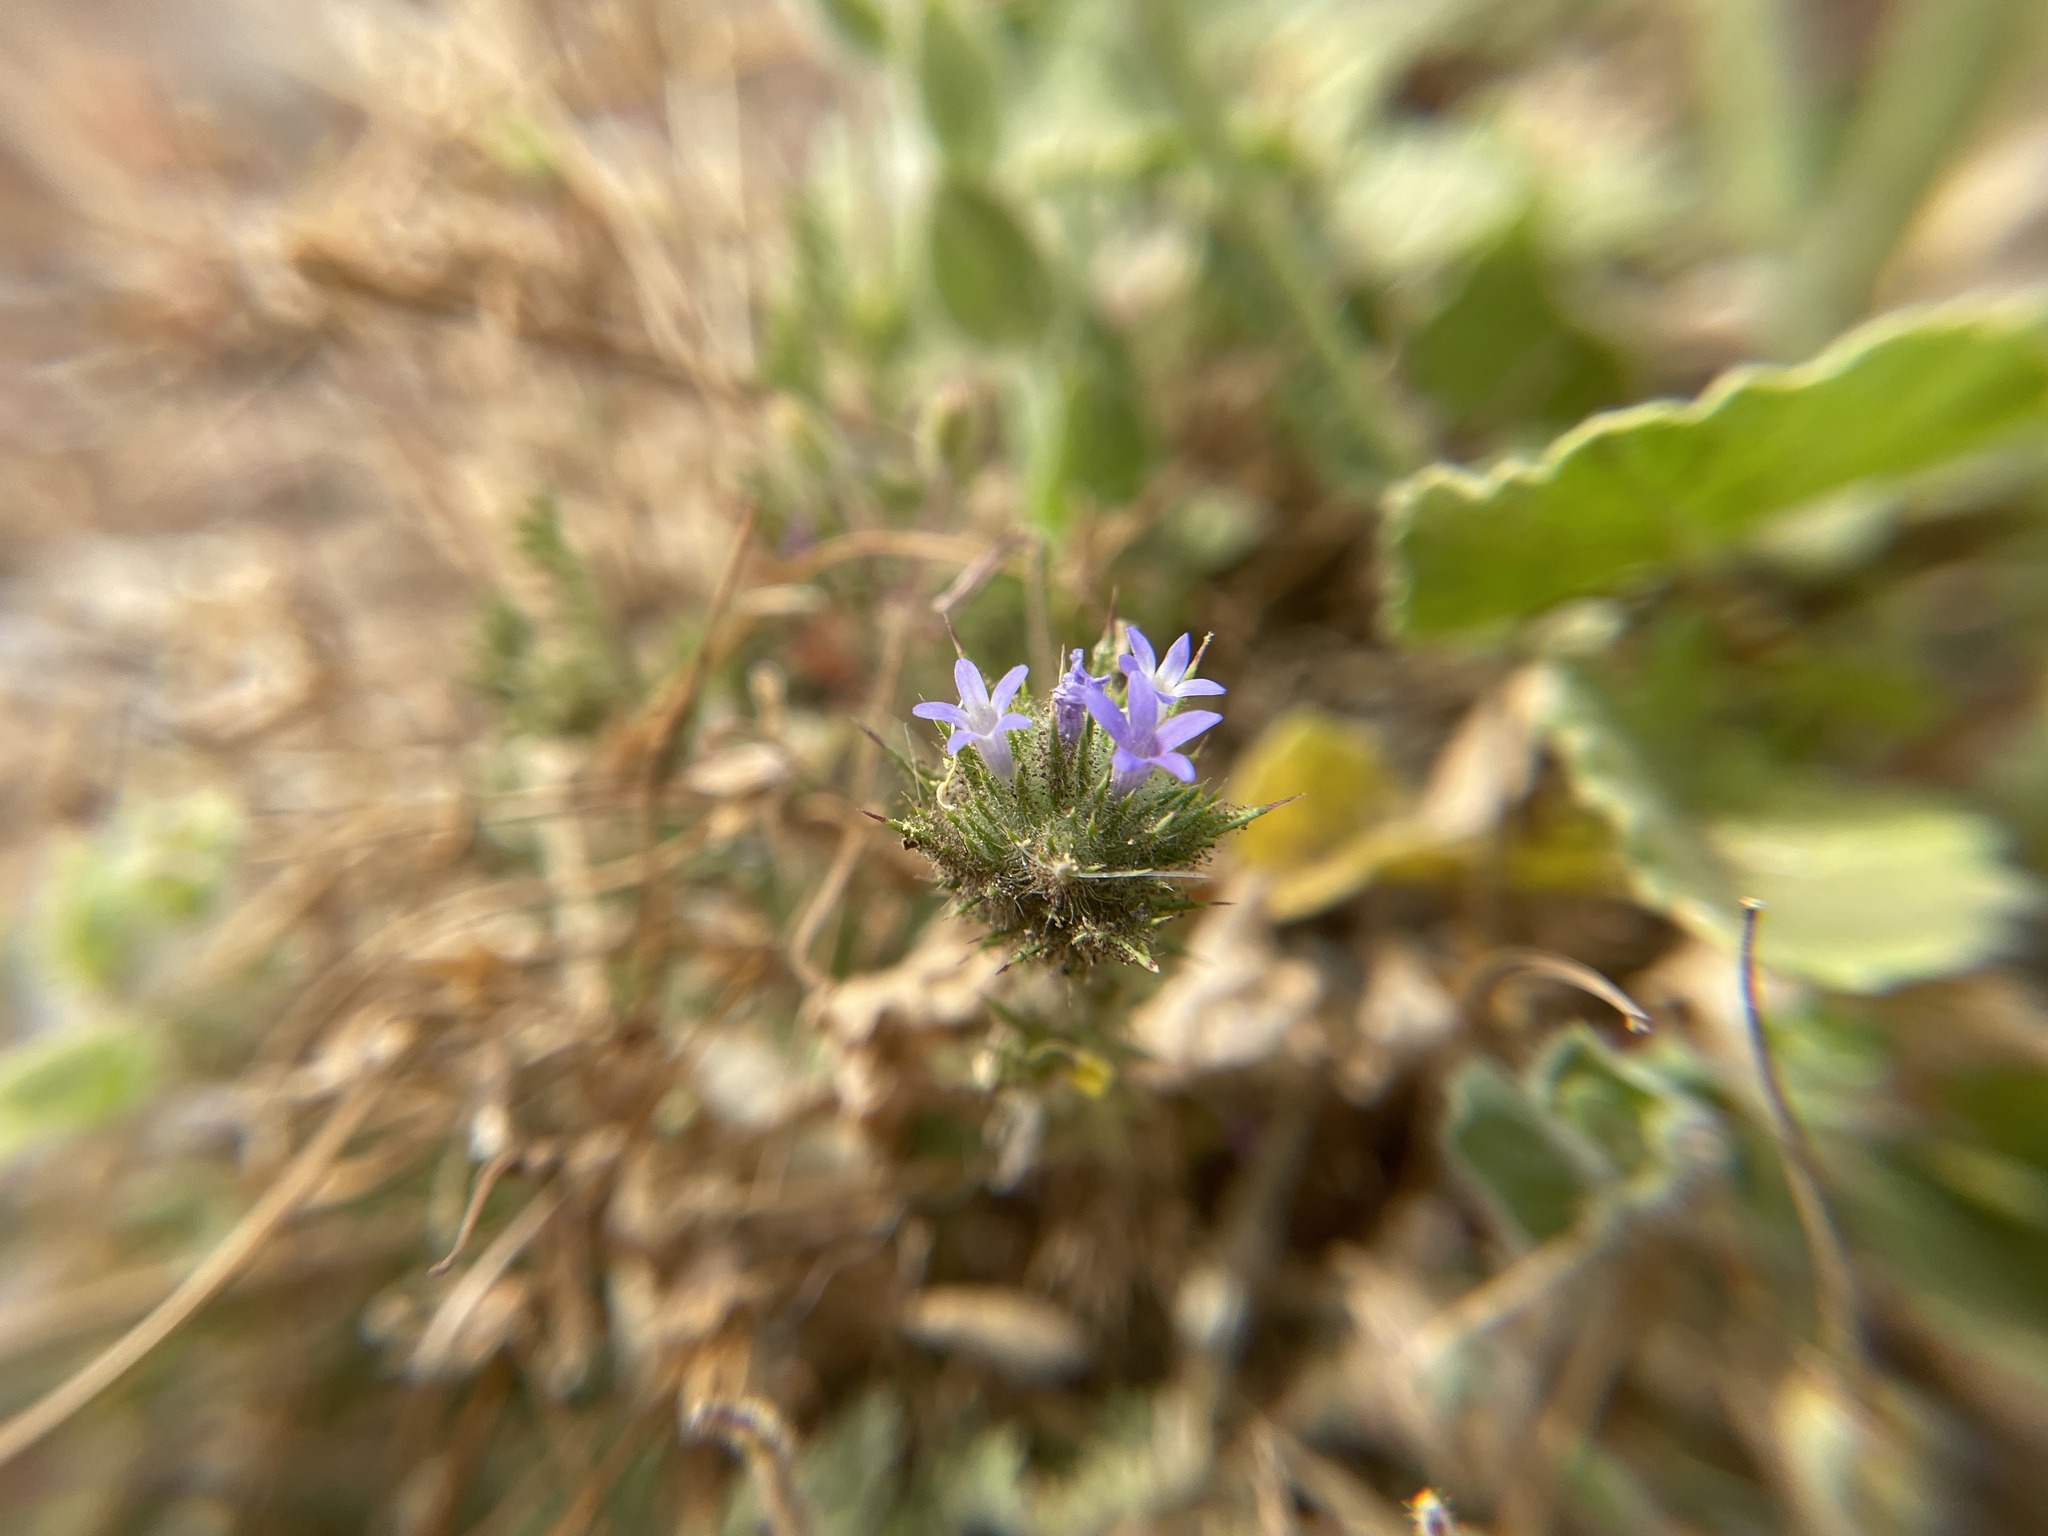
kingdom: Plantae
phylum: Tracheophyta
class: Magnoliopsida
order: Ericales
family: Polemoniaceae
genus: Navarretia
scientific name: Navarretia squarrosa
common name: Skunkweed
